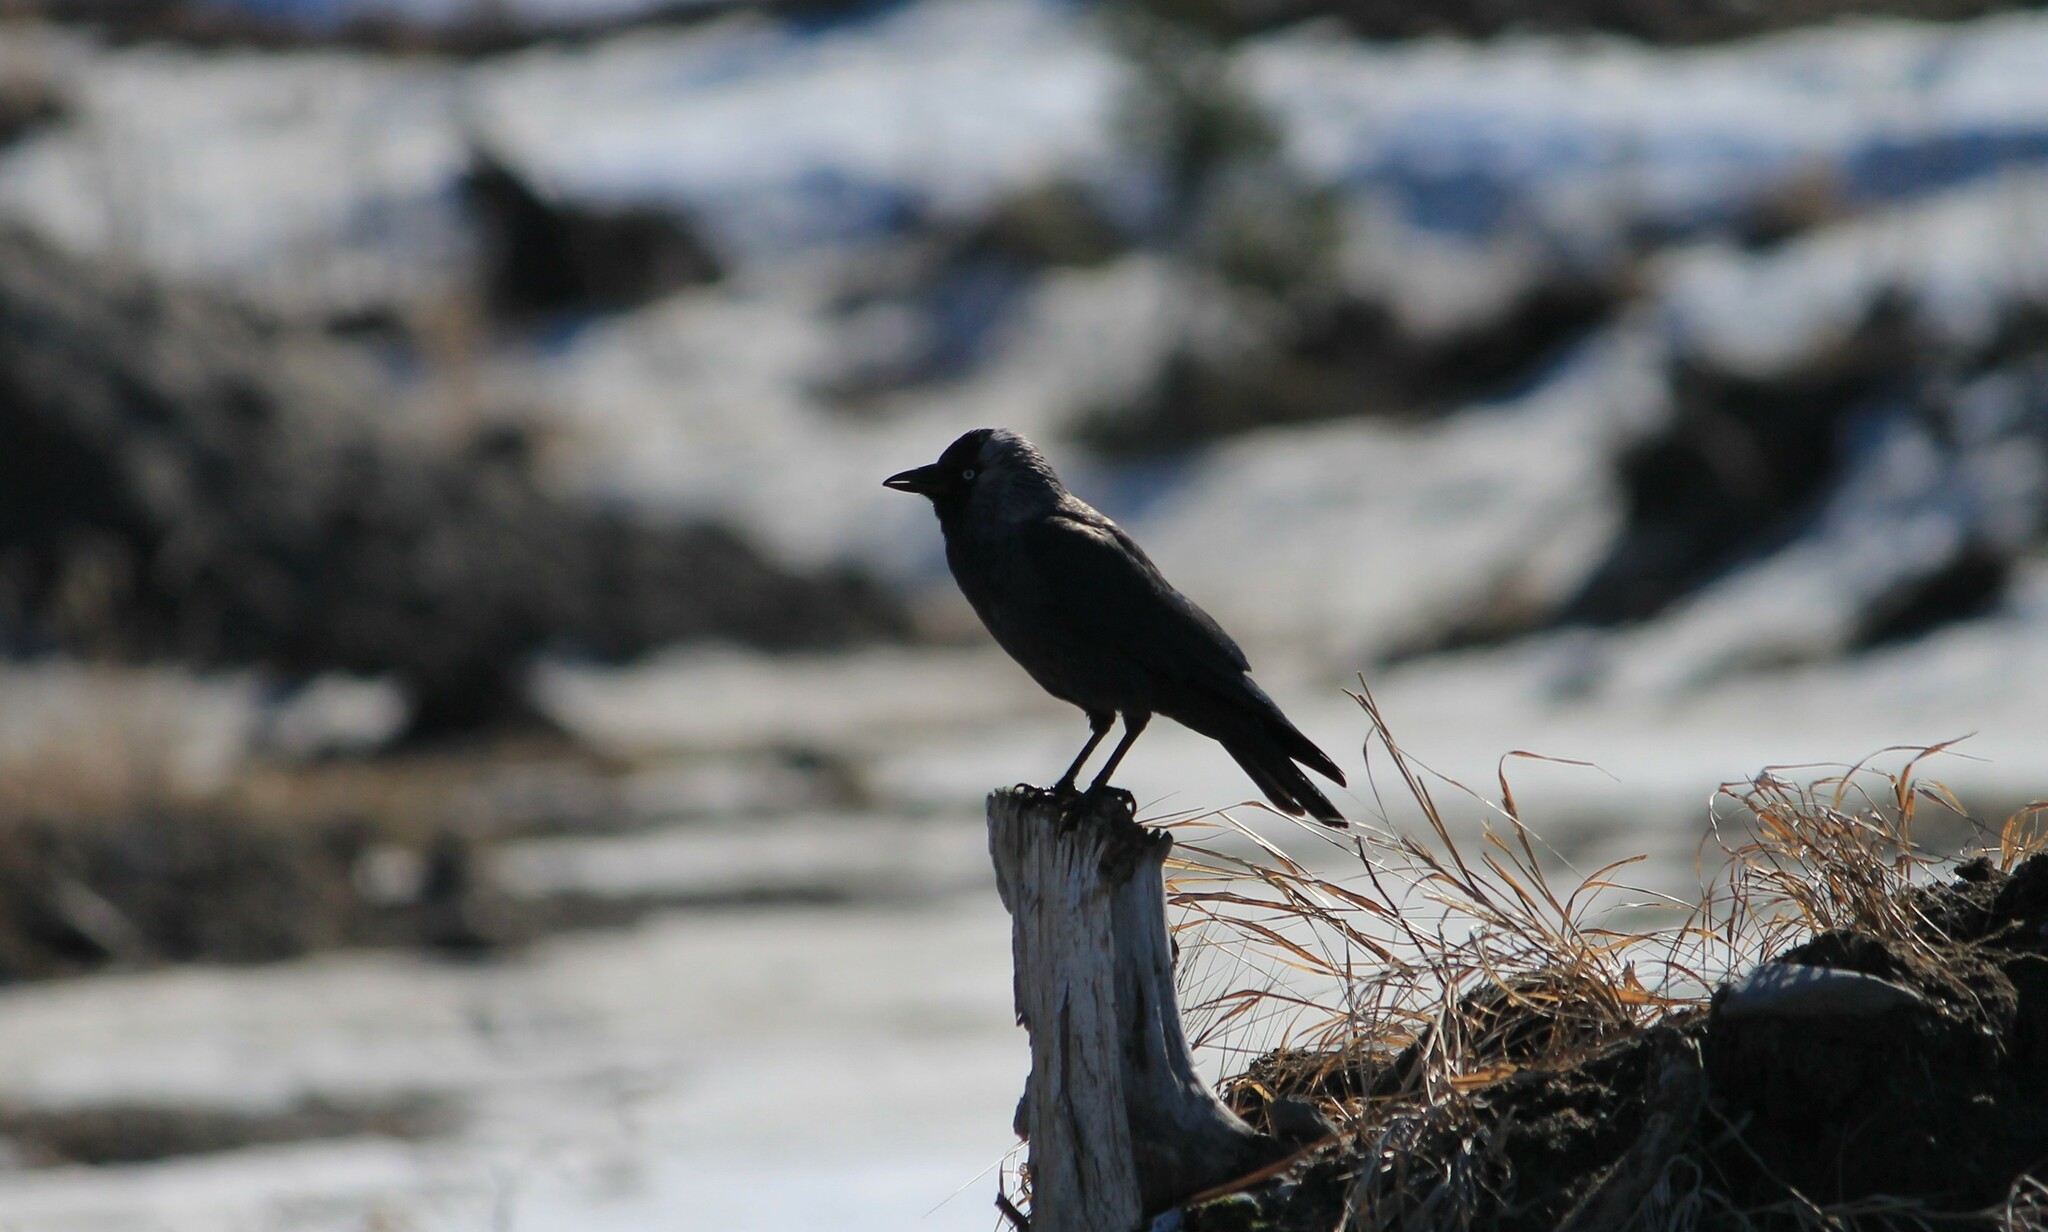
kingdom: Animalia
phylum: Chordata
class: Aves
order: Passeriformes
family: Corvidae
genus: Coloeus
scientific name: Coloeus monedula
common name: Western jackdaw
